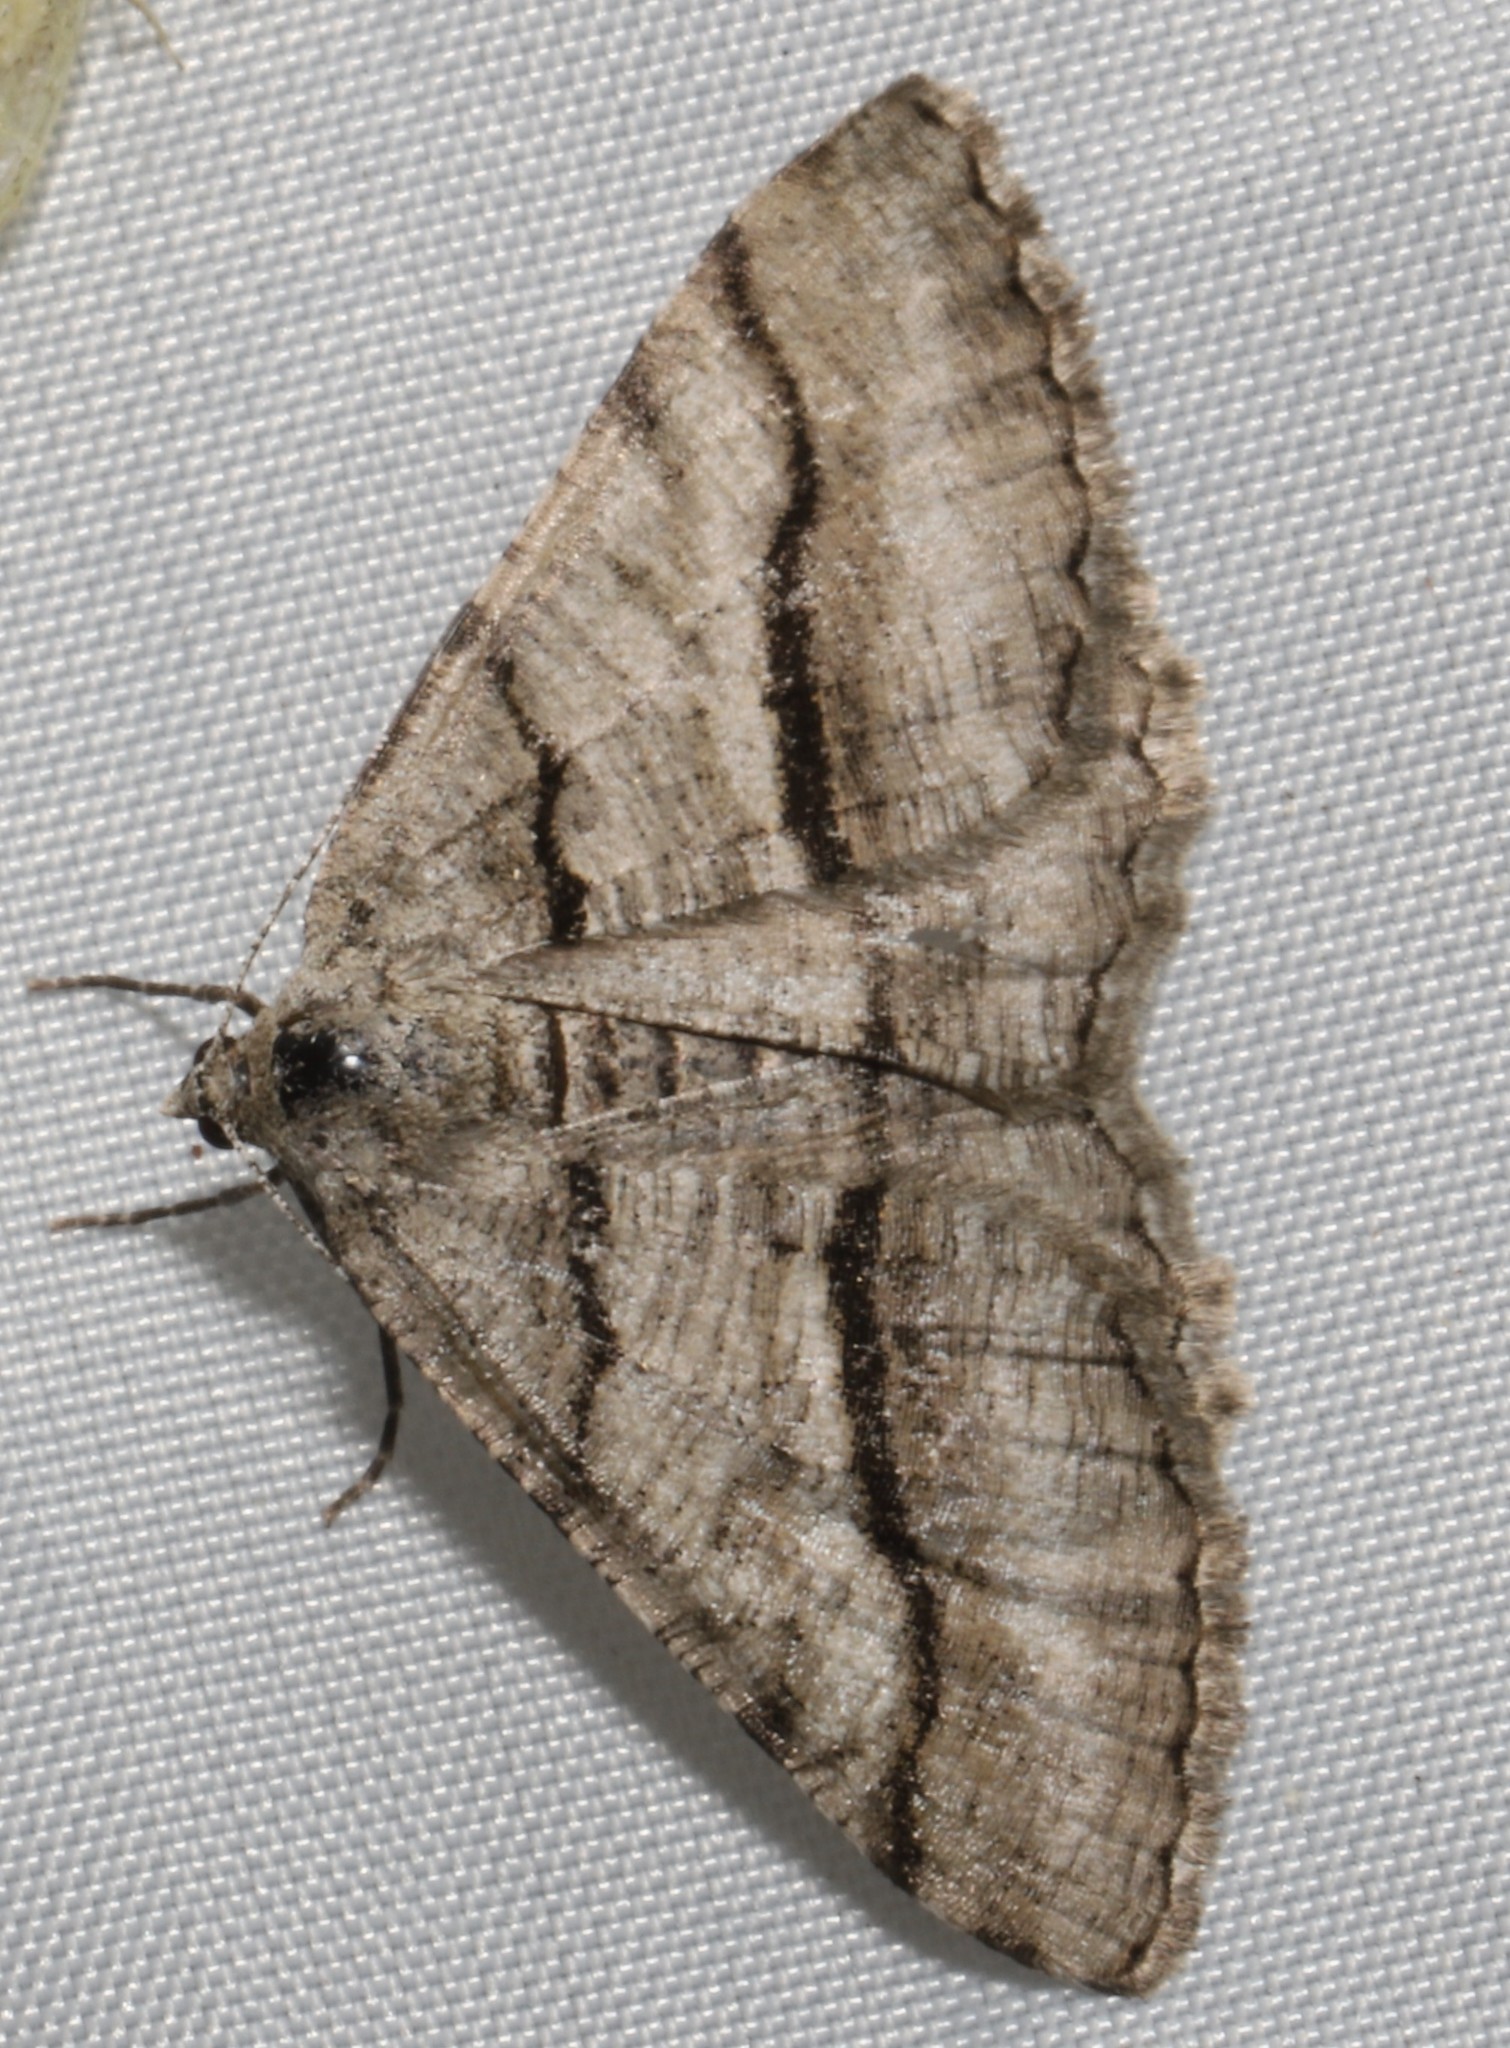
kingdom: Animalia
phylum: Arthropoda
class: Insecta
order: Lepidoptera
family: Geometridae
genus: Digrammia
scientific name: Digrammia continuata
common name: Curve-lined angle
